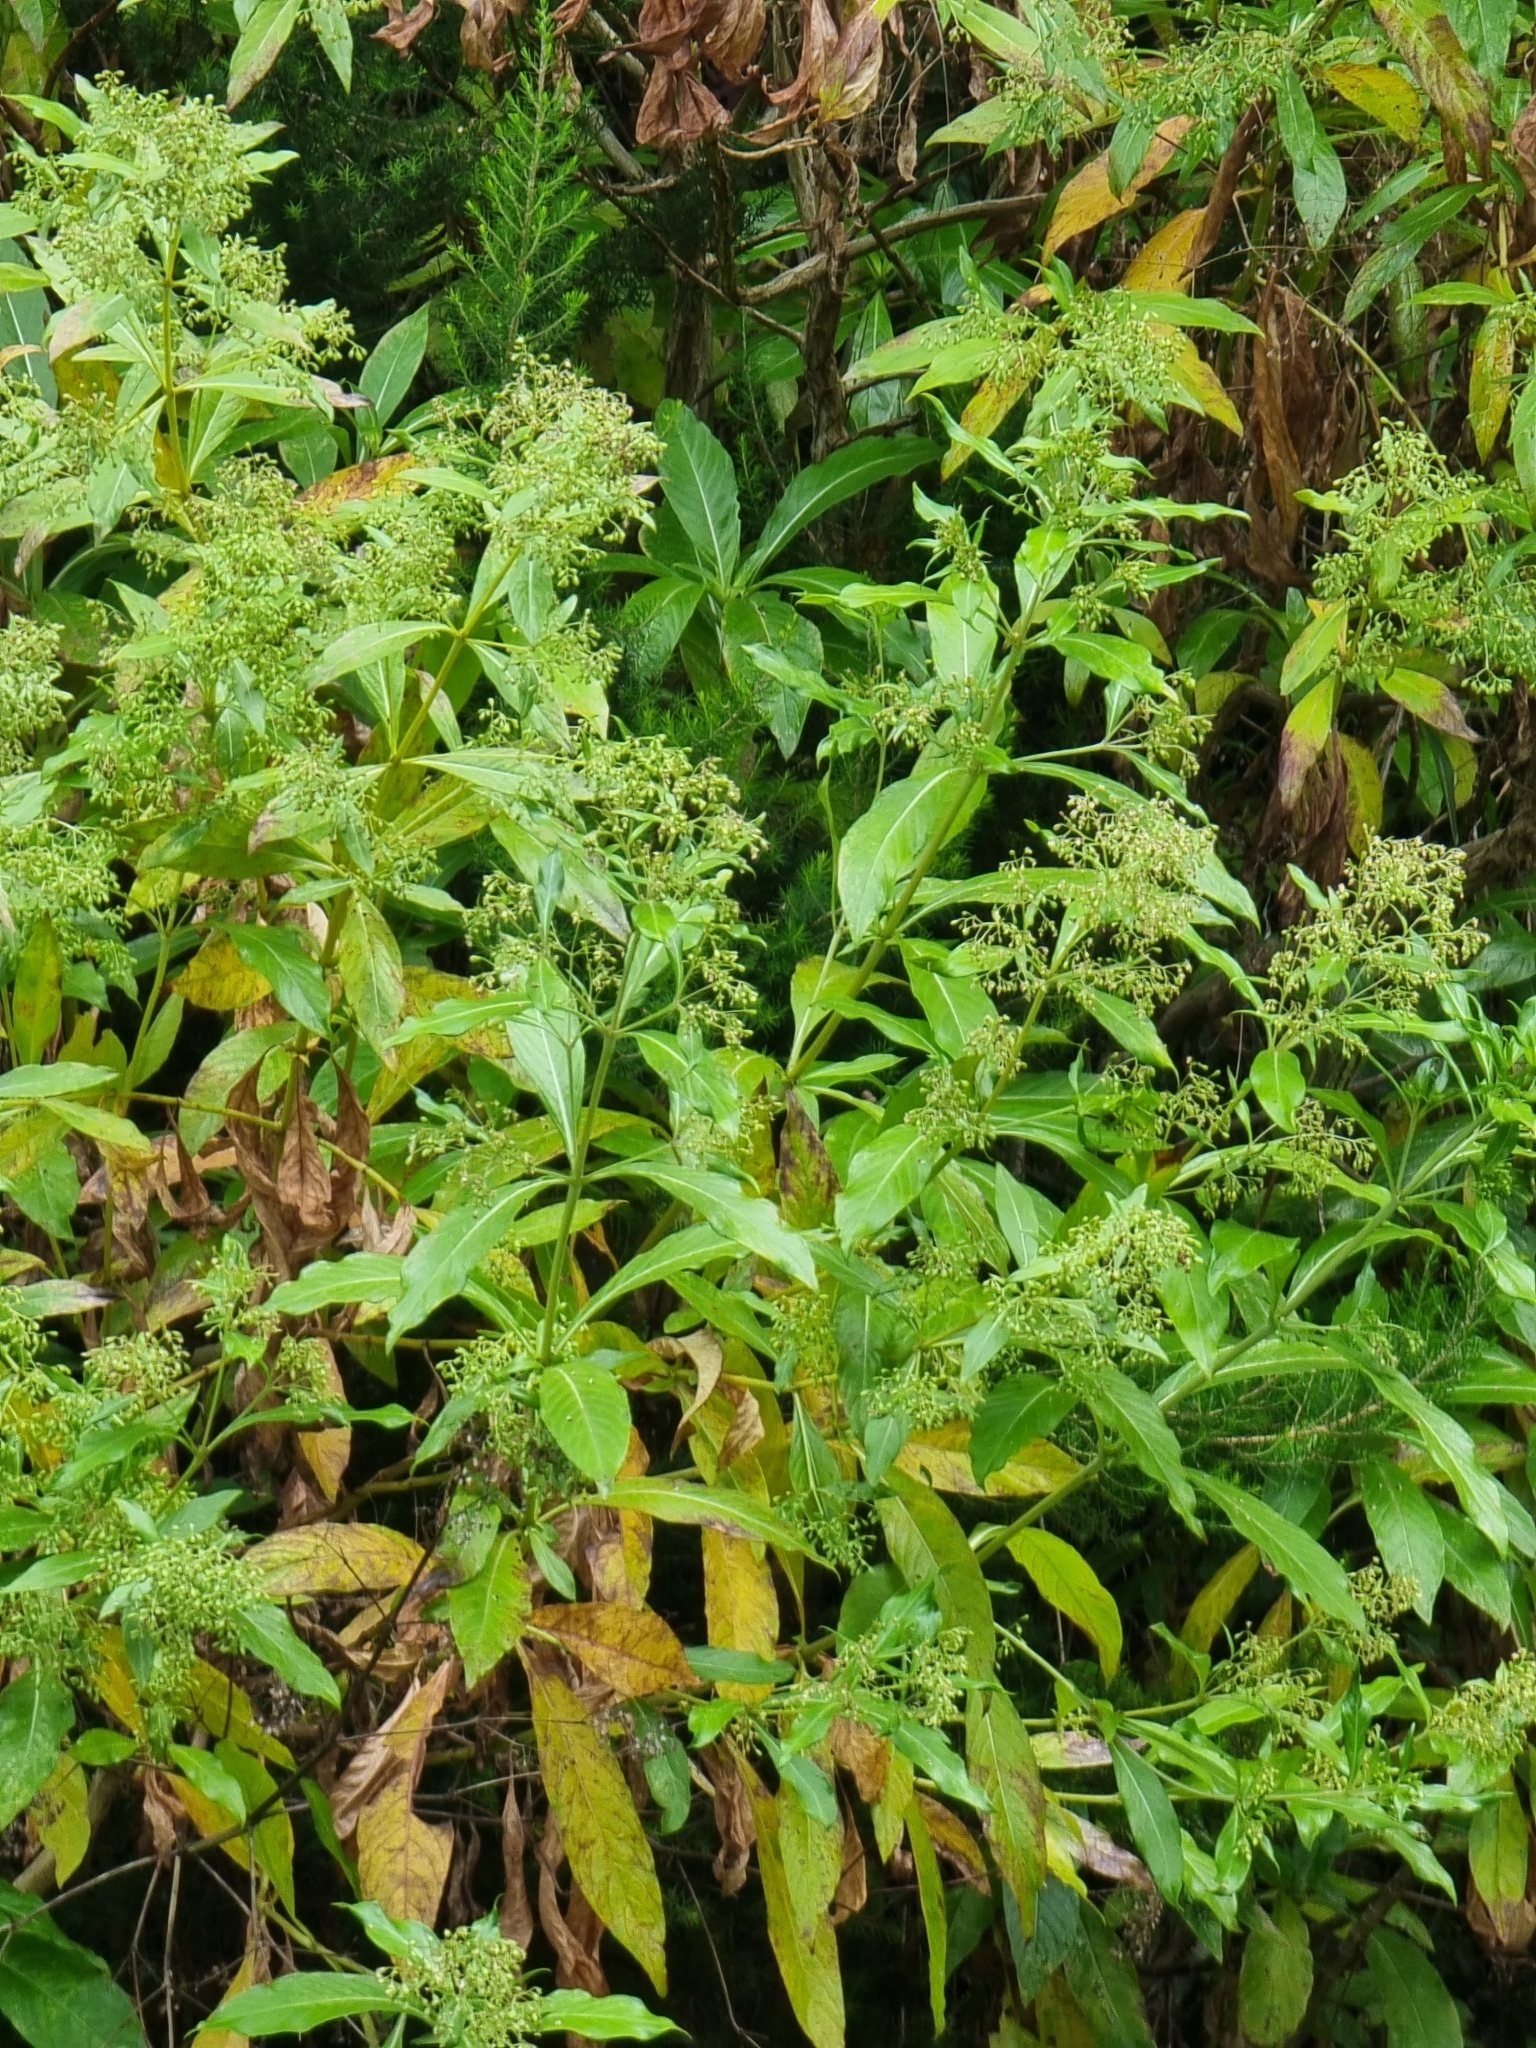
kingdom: Plantae
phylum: Tracheophyta
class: Magnoliopsida
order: Gentianales
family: Rubiaceae
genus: Phyllis
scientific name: Phyllis nobla
